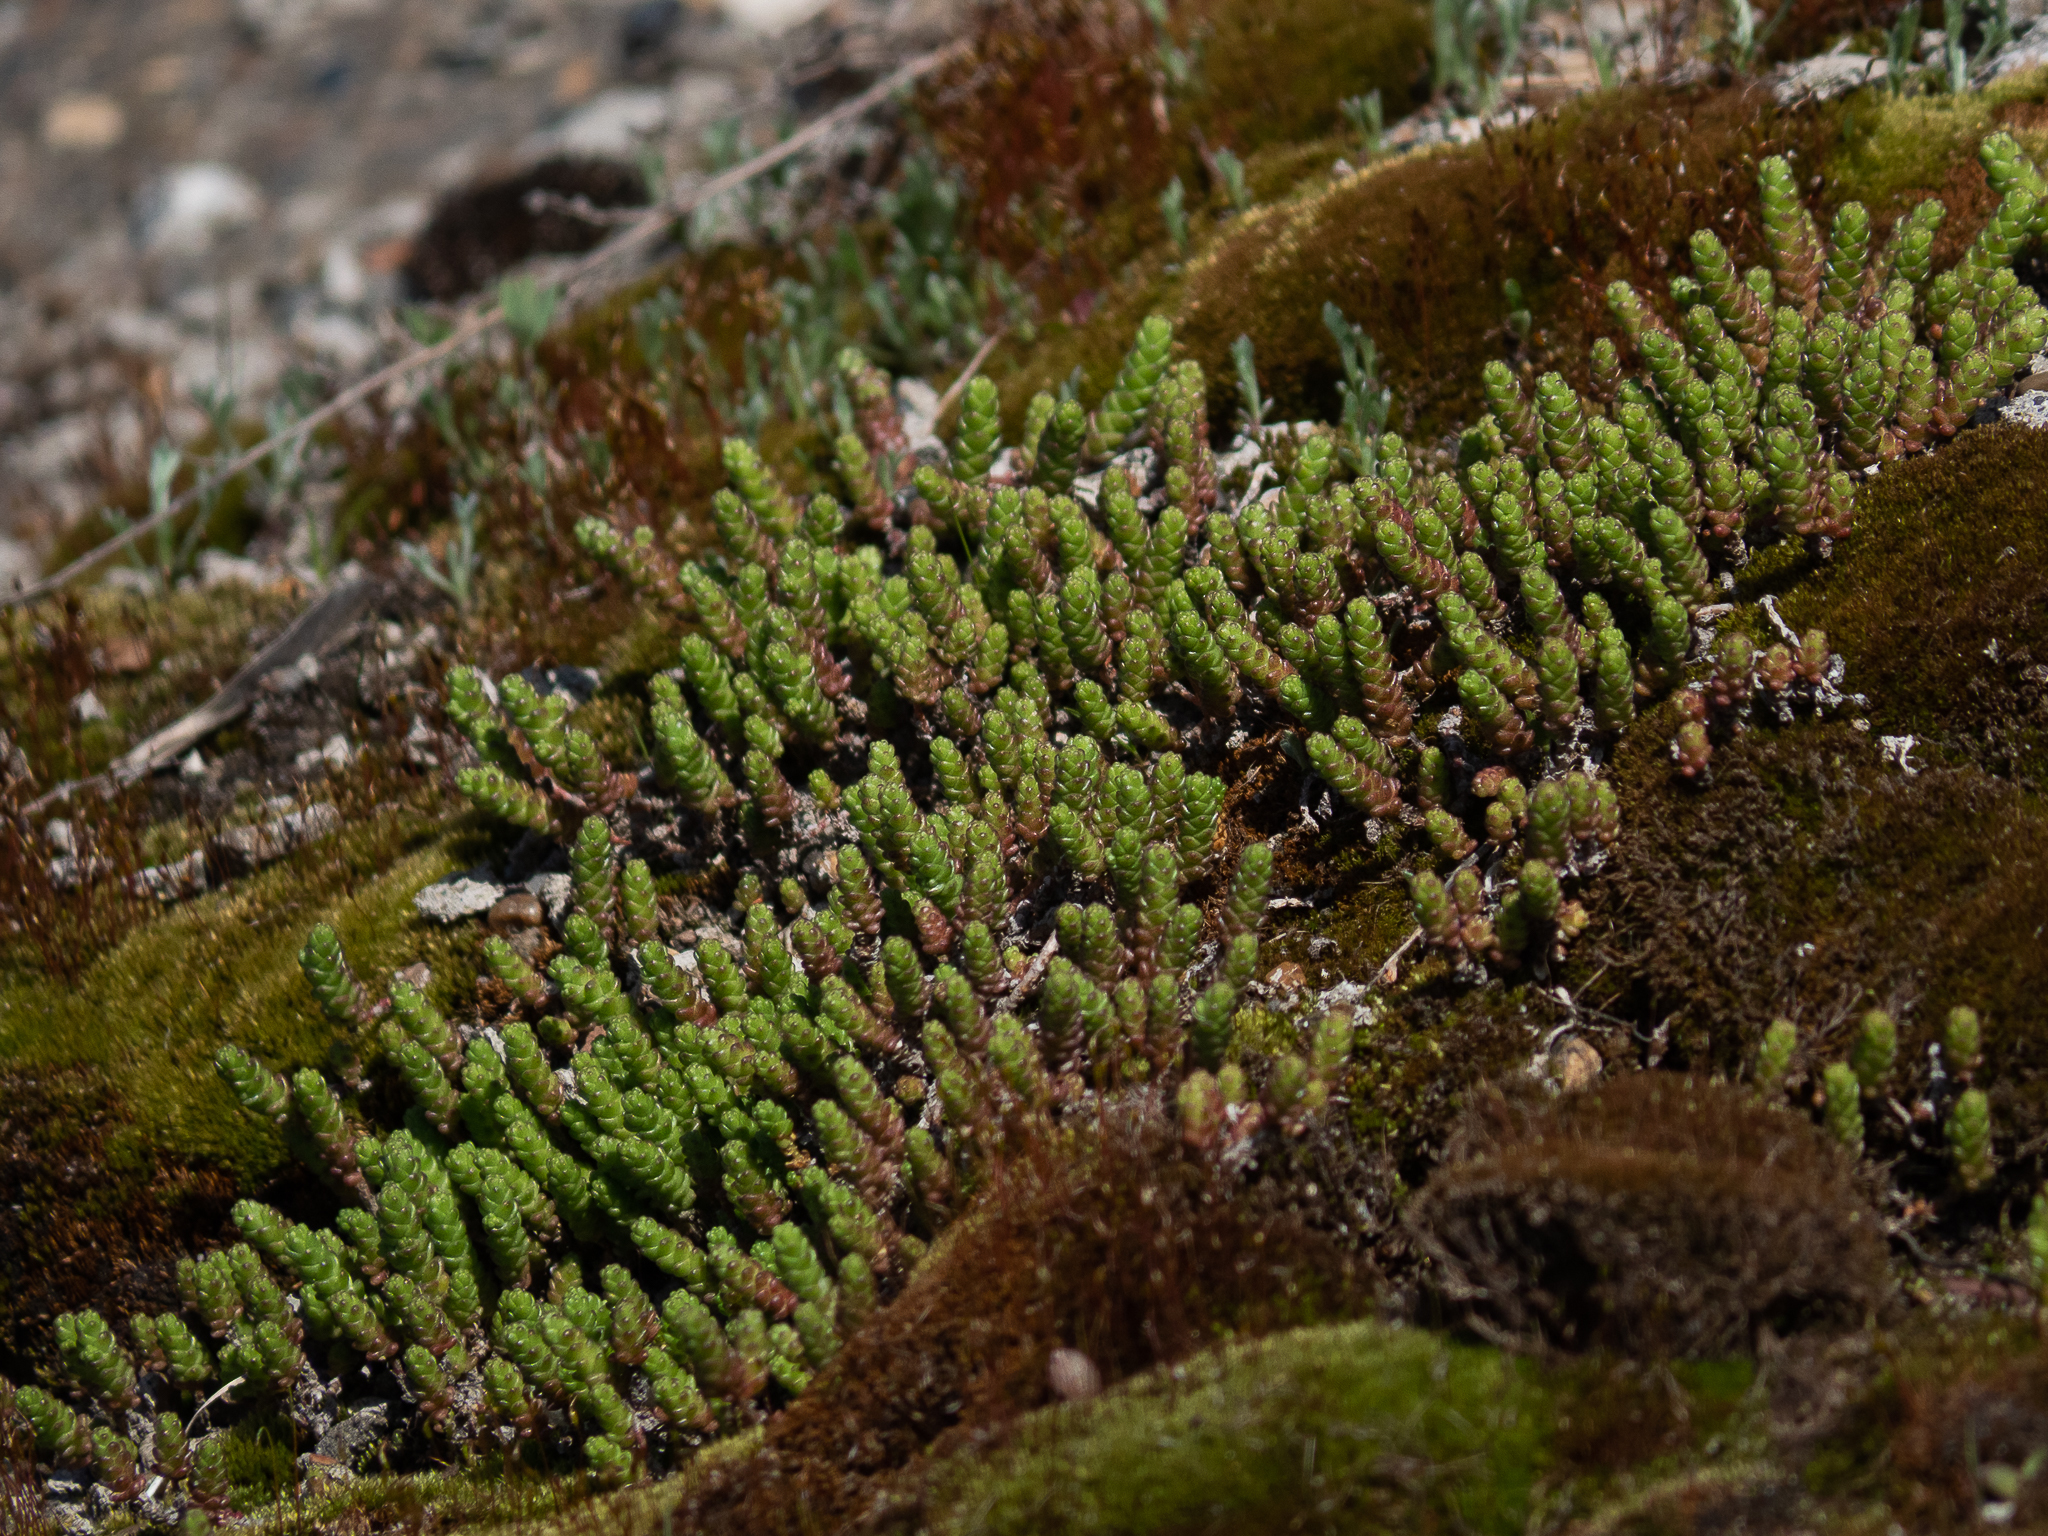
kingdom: Plantae
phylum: Tracheophyta
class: Magnoliopsida
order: Saxifragales
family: Crassulaceae
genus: Sedum
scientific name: Sedum acre
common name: Biting stonecrop
